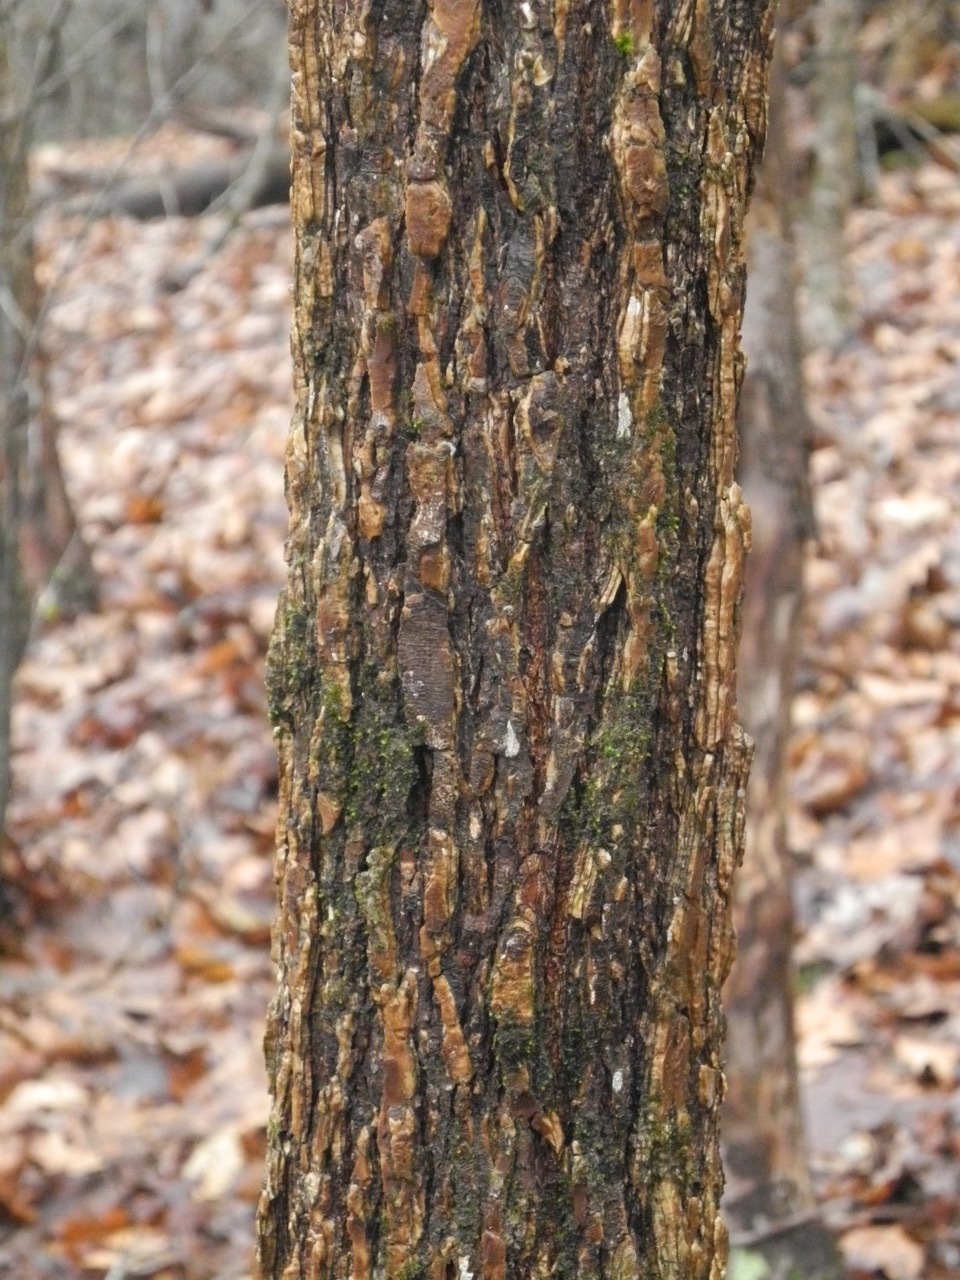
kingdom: Plantae
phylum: Tracheophyta
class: Magnoliopsida
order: Rosales
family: Ulmaceae
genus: Ulmus
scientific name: Ulmus alata
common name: Winged elm
